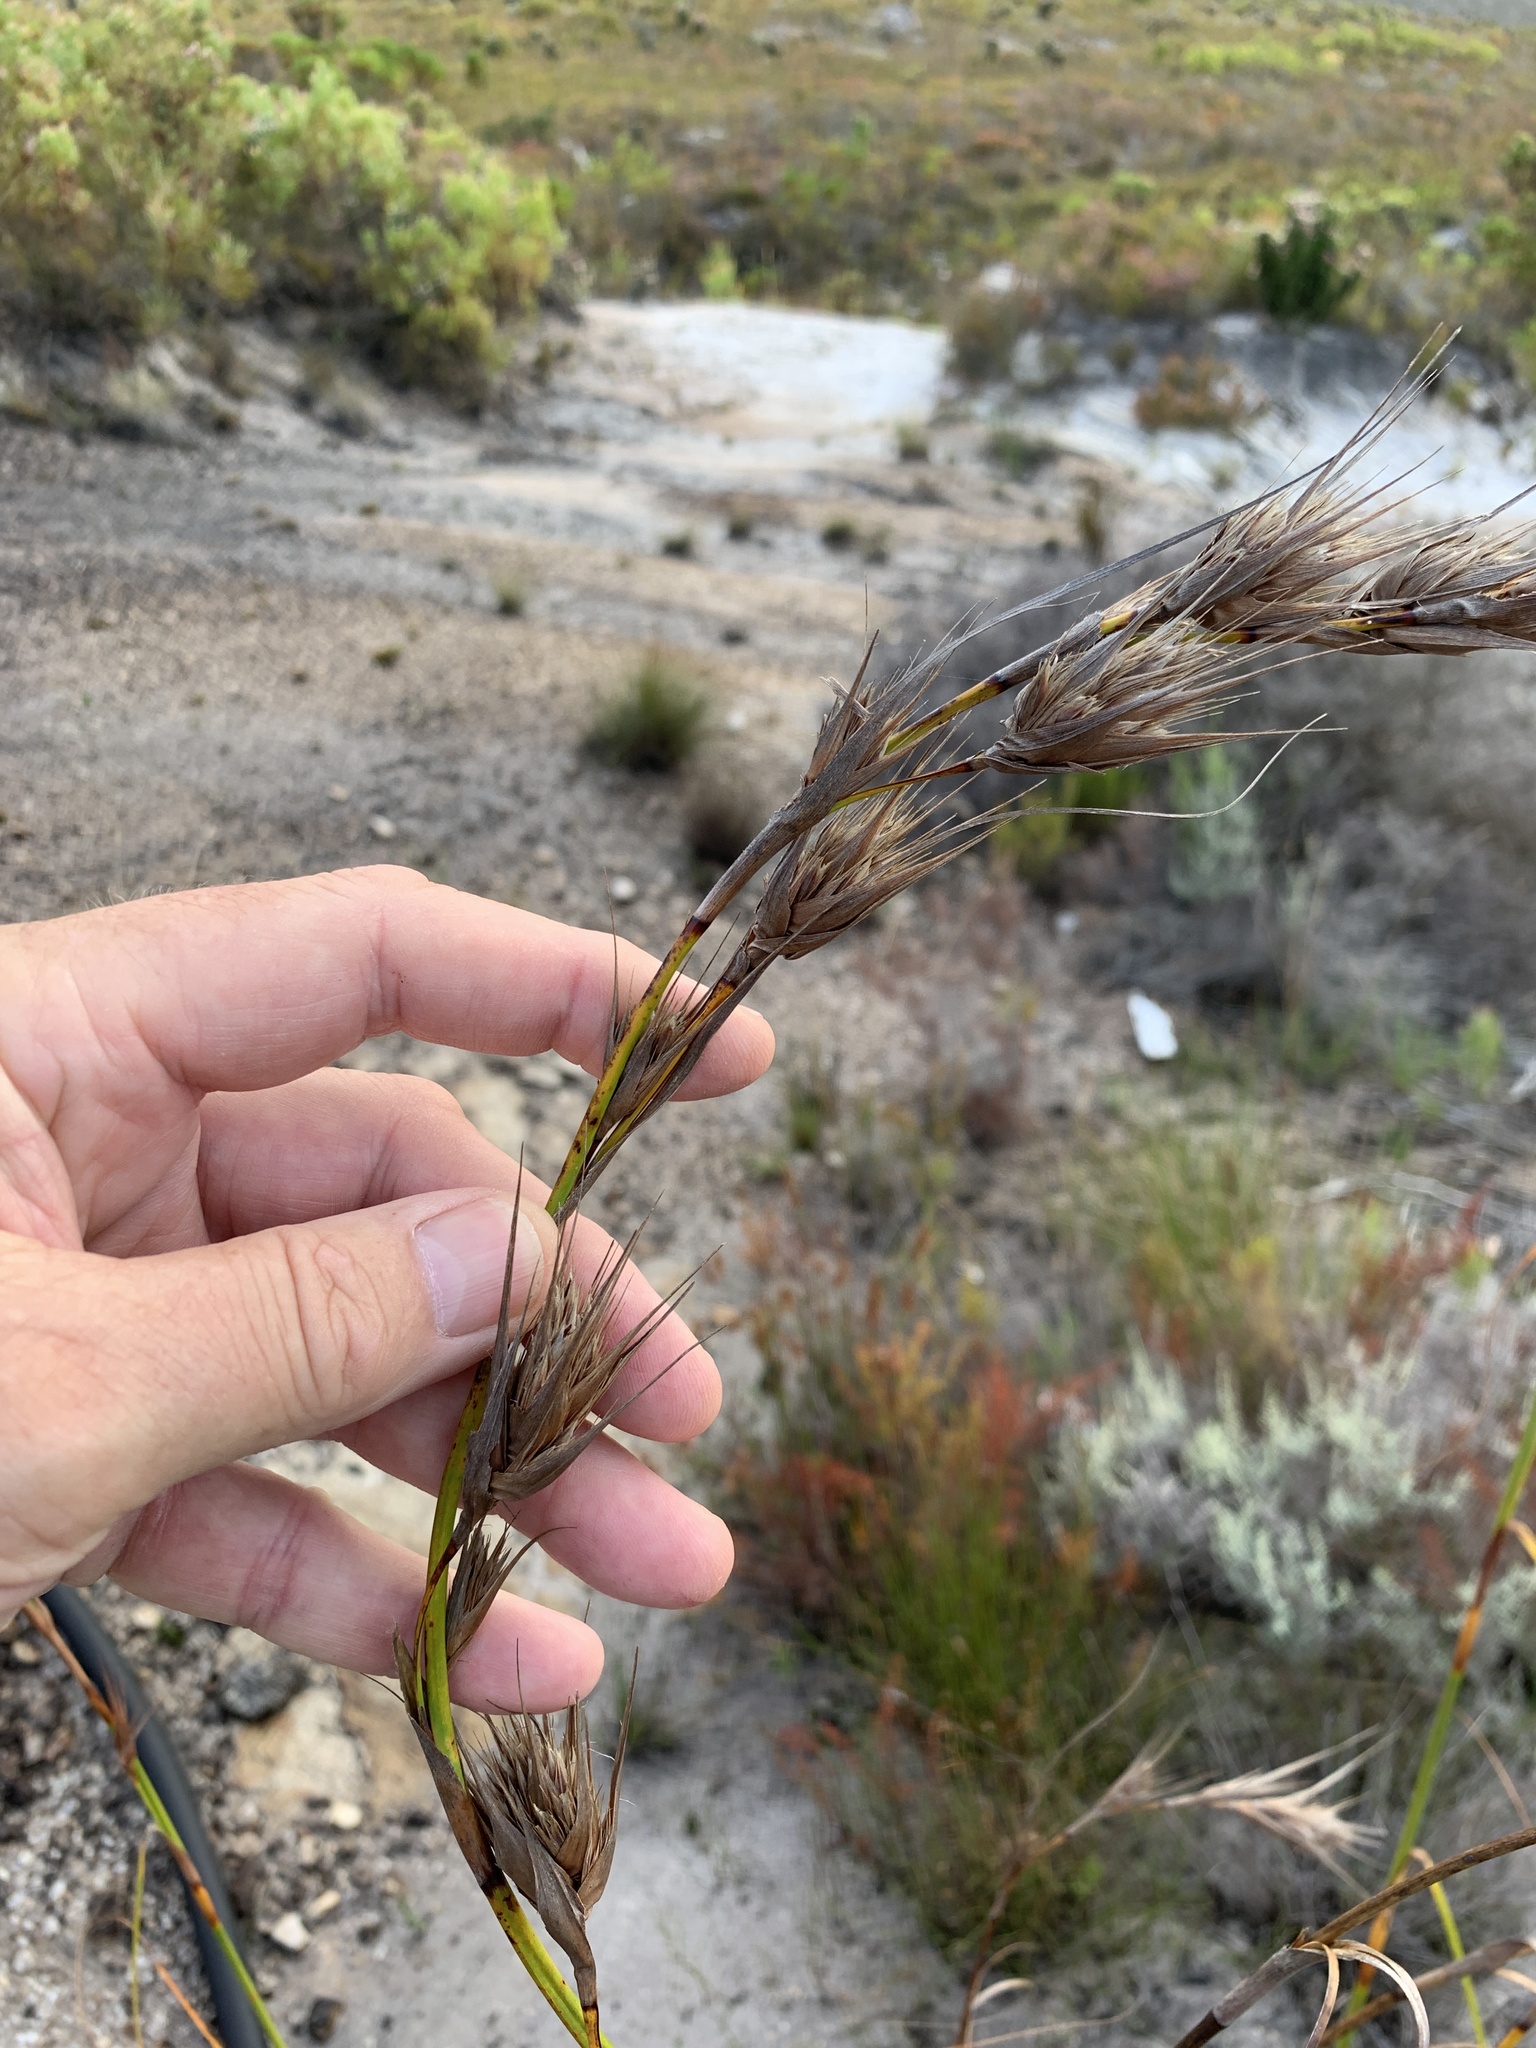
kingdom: Plantae
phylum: Tracheophyta
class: Liliopsida
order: Poales
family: Cyperaceae
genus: Tetraria
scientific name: Tetraria bromoides
